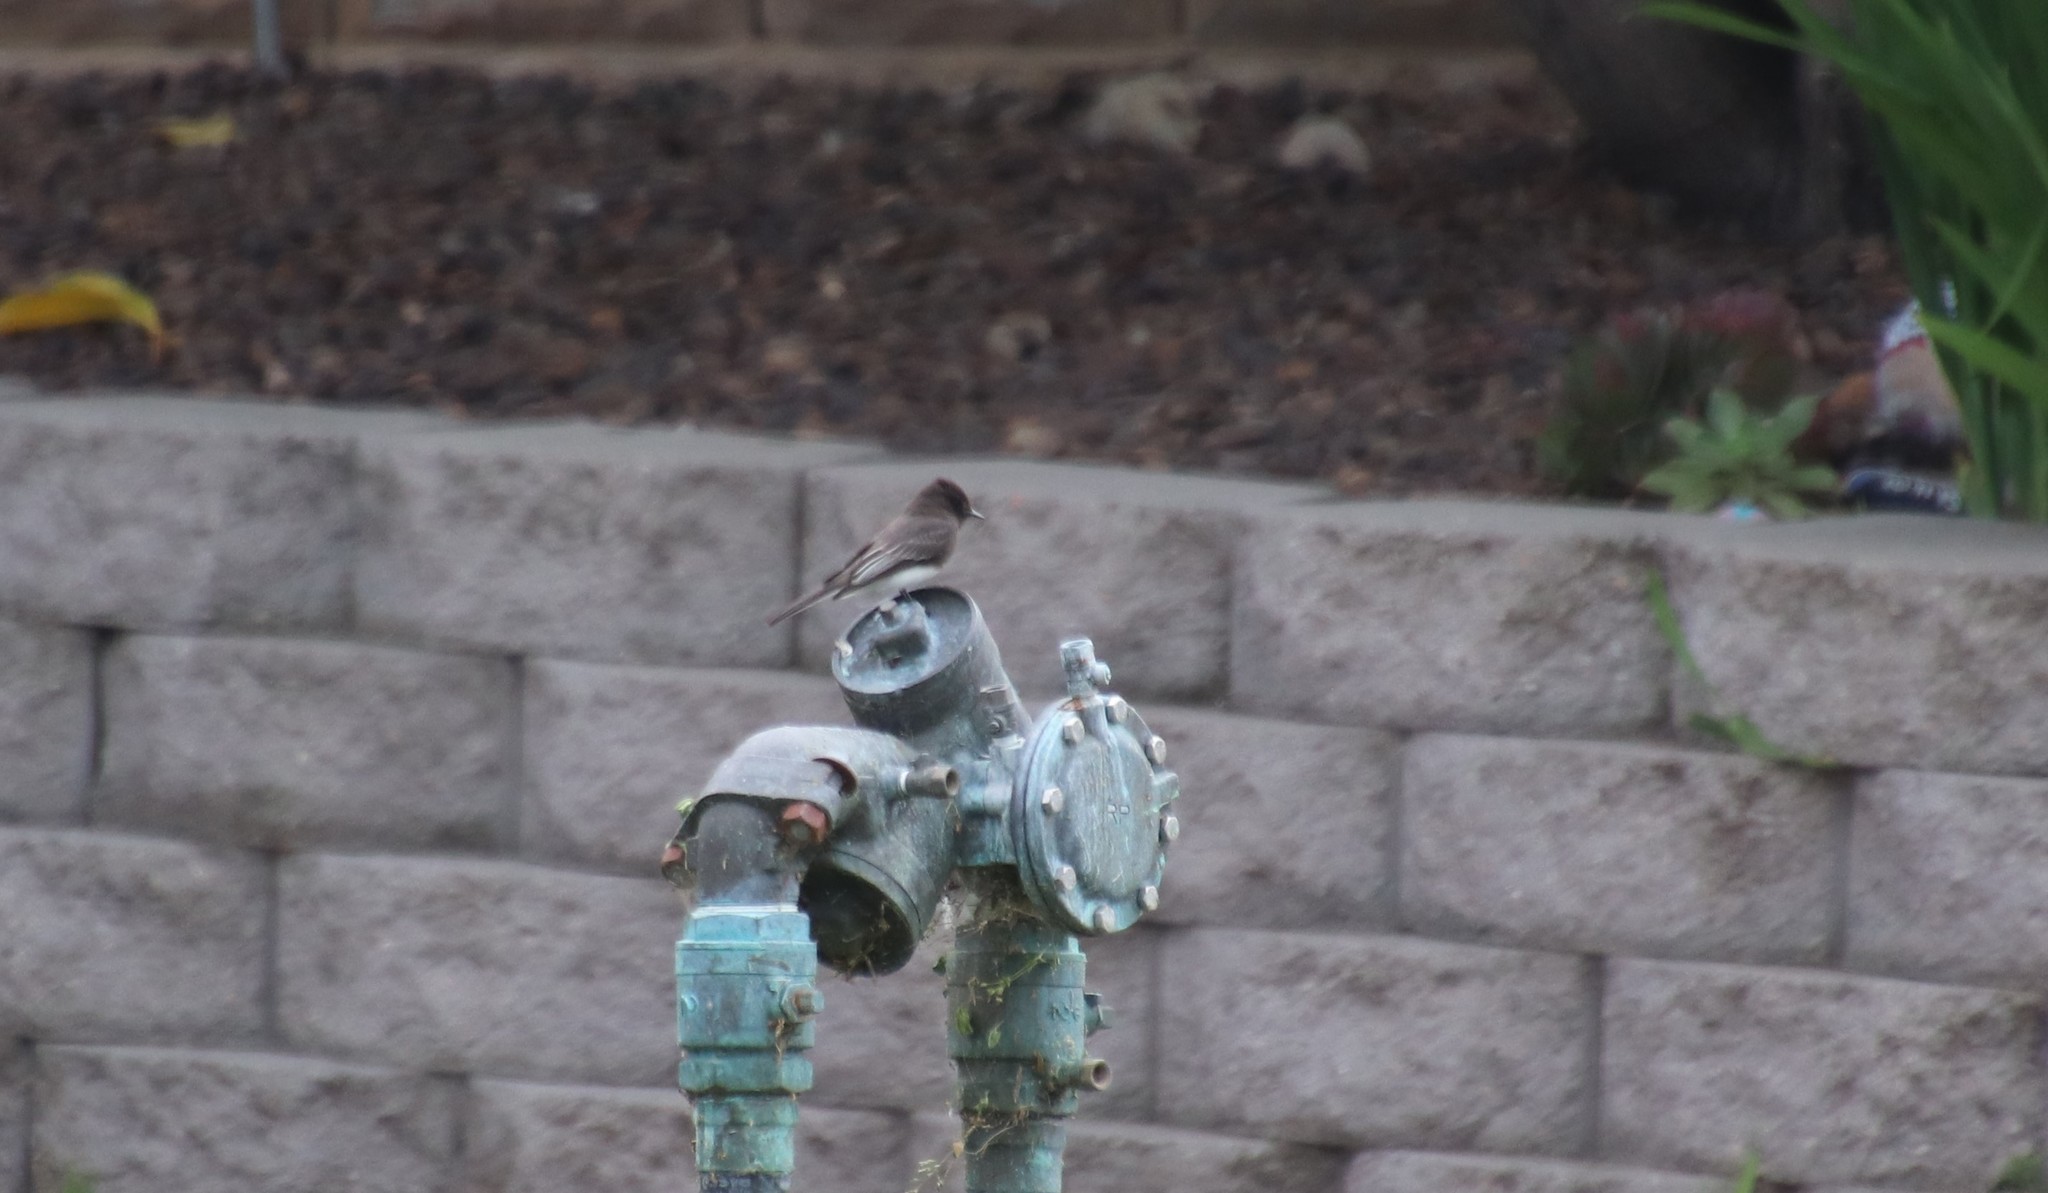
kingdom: Animalia
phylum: Chordata
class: Aves
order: Passeriformes
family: Tyrannidae
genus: Sayornis
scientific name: Sayornis nigricans
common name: Black phoebe
